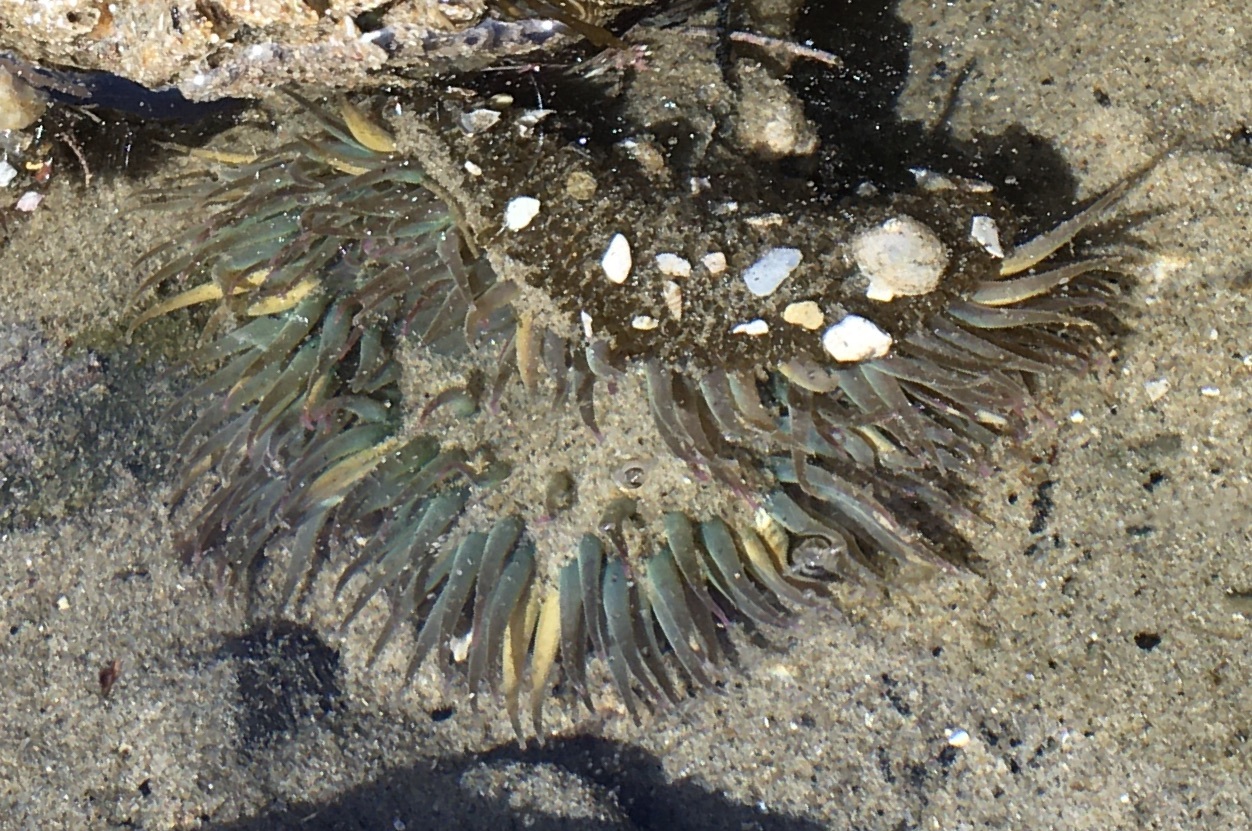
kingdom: Animalia
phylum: Cnidaria
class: Anthozoa
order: Actiniaria
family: Actiniidae
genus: Anthopleura
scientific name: Anthopleura sola
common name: Sun anemone
